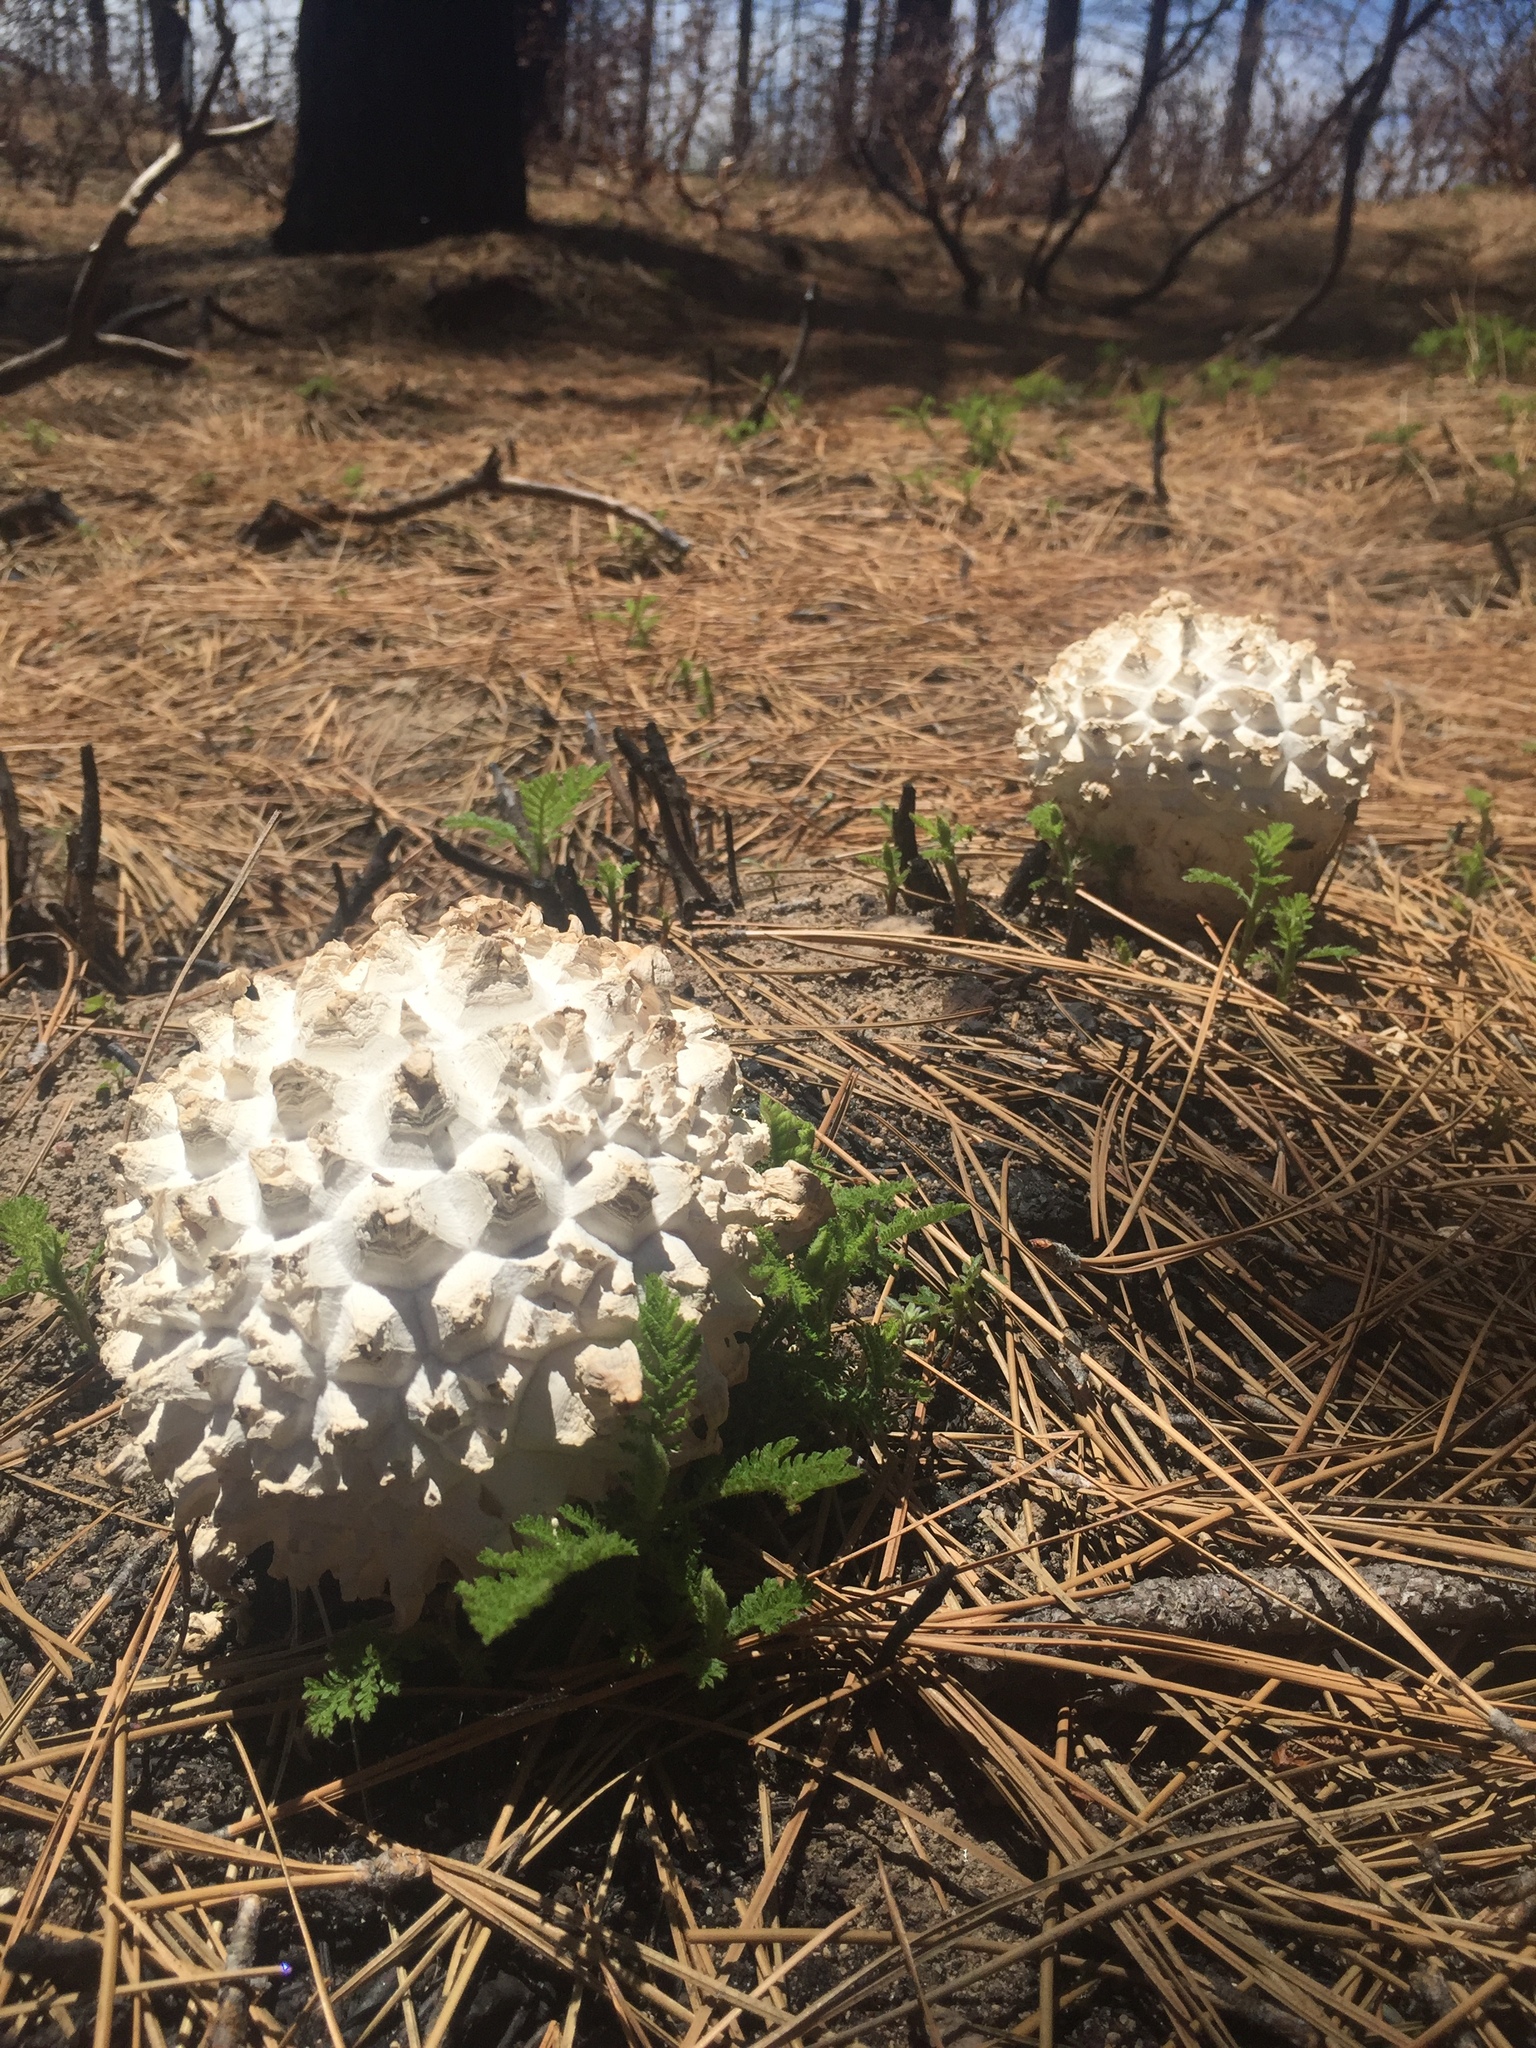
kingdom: Fungi
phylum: Basidiomycota
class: Agaricomycetes
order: Agaricales
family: Lycoperdaceae
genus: Calvatia
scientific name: Calvatia sculpta
